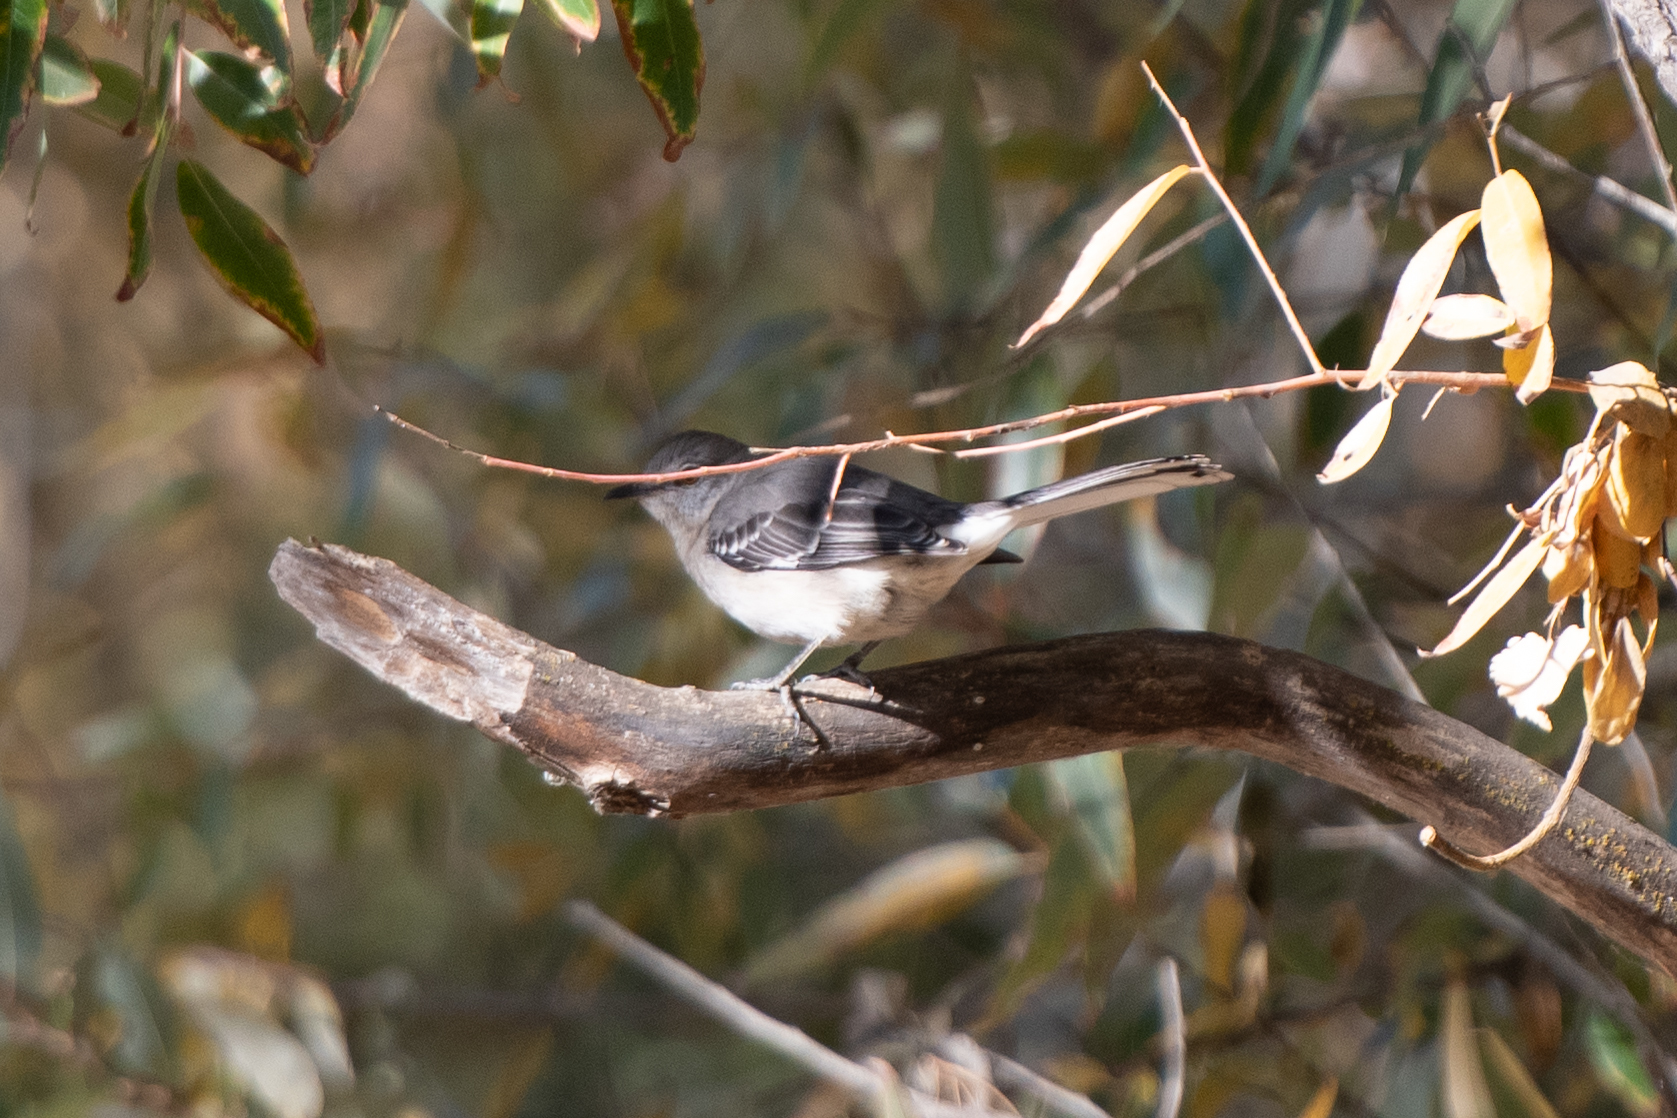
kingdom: Animalia
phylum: Chordata
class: Aves
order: Passeriformes
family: Mimidae
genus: Mimus
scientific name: Mimus polyglottos
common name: Northern mockingbird
